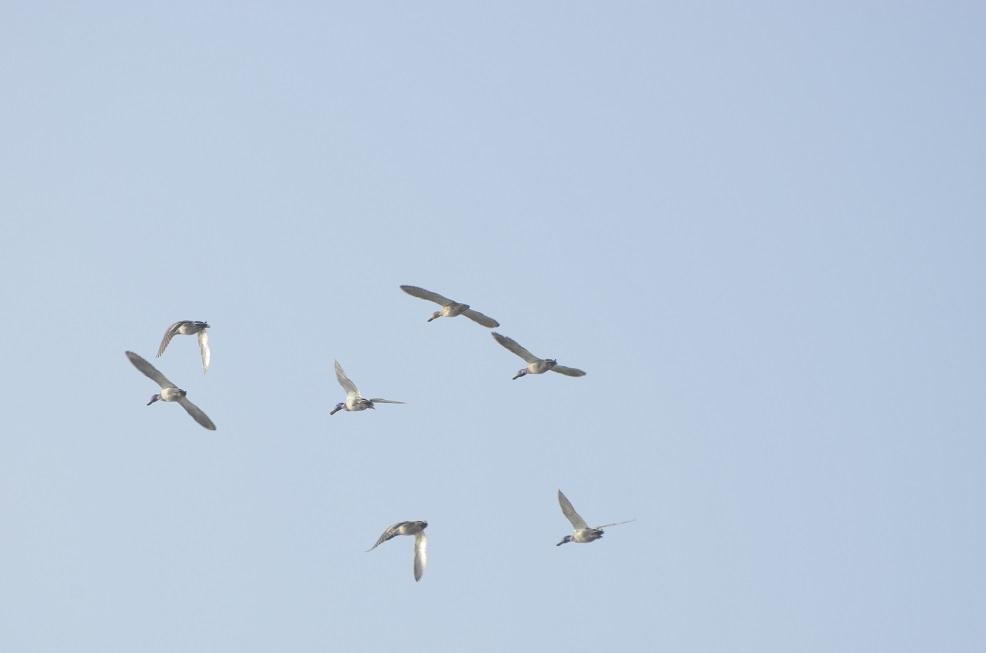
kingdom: Animalia
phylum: Chordata
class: Aves
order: Anseriformes
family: Anatidae
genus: Spatula
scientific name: Spatula clypeata
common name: Northern shoveler
